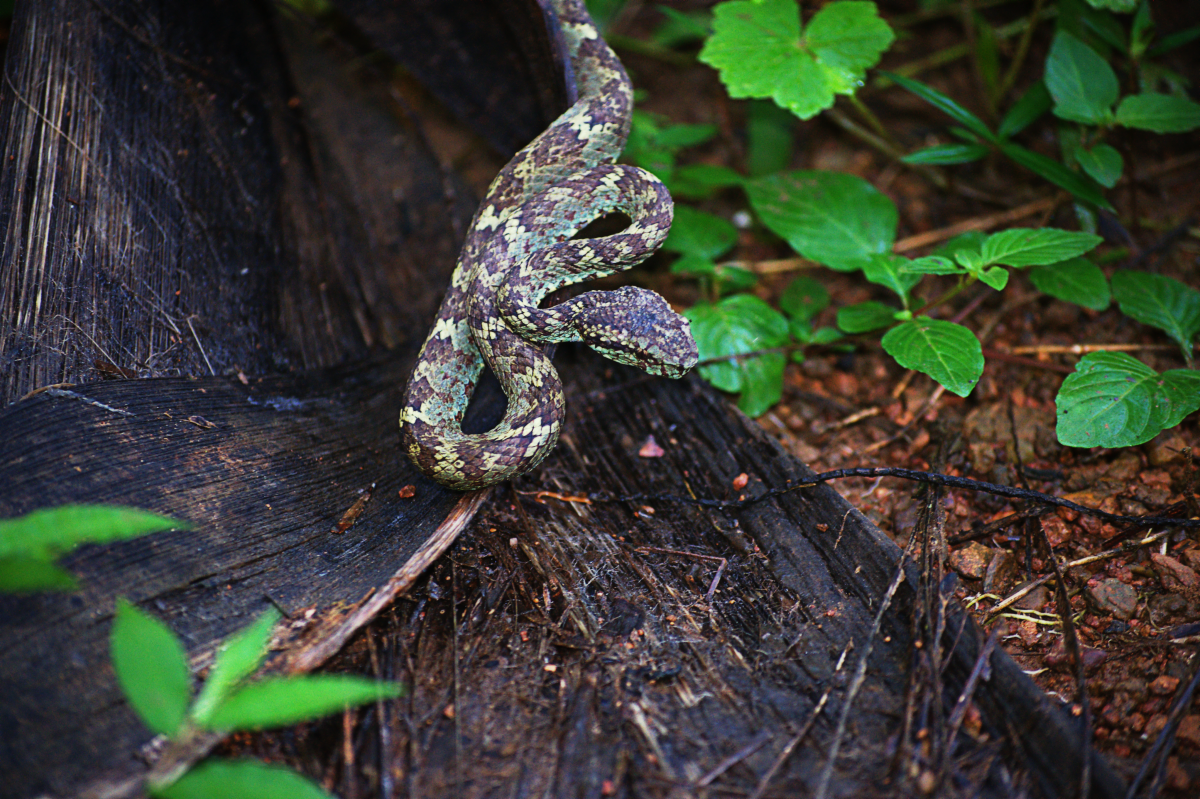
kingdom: Animalia
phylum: Chordata
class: Squamata
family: Viperidae
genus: Craspedocephalus
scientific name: Craspedocephalus malabaricus
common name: Malabarian pit viper
